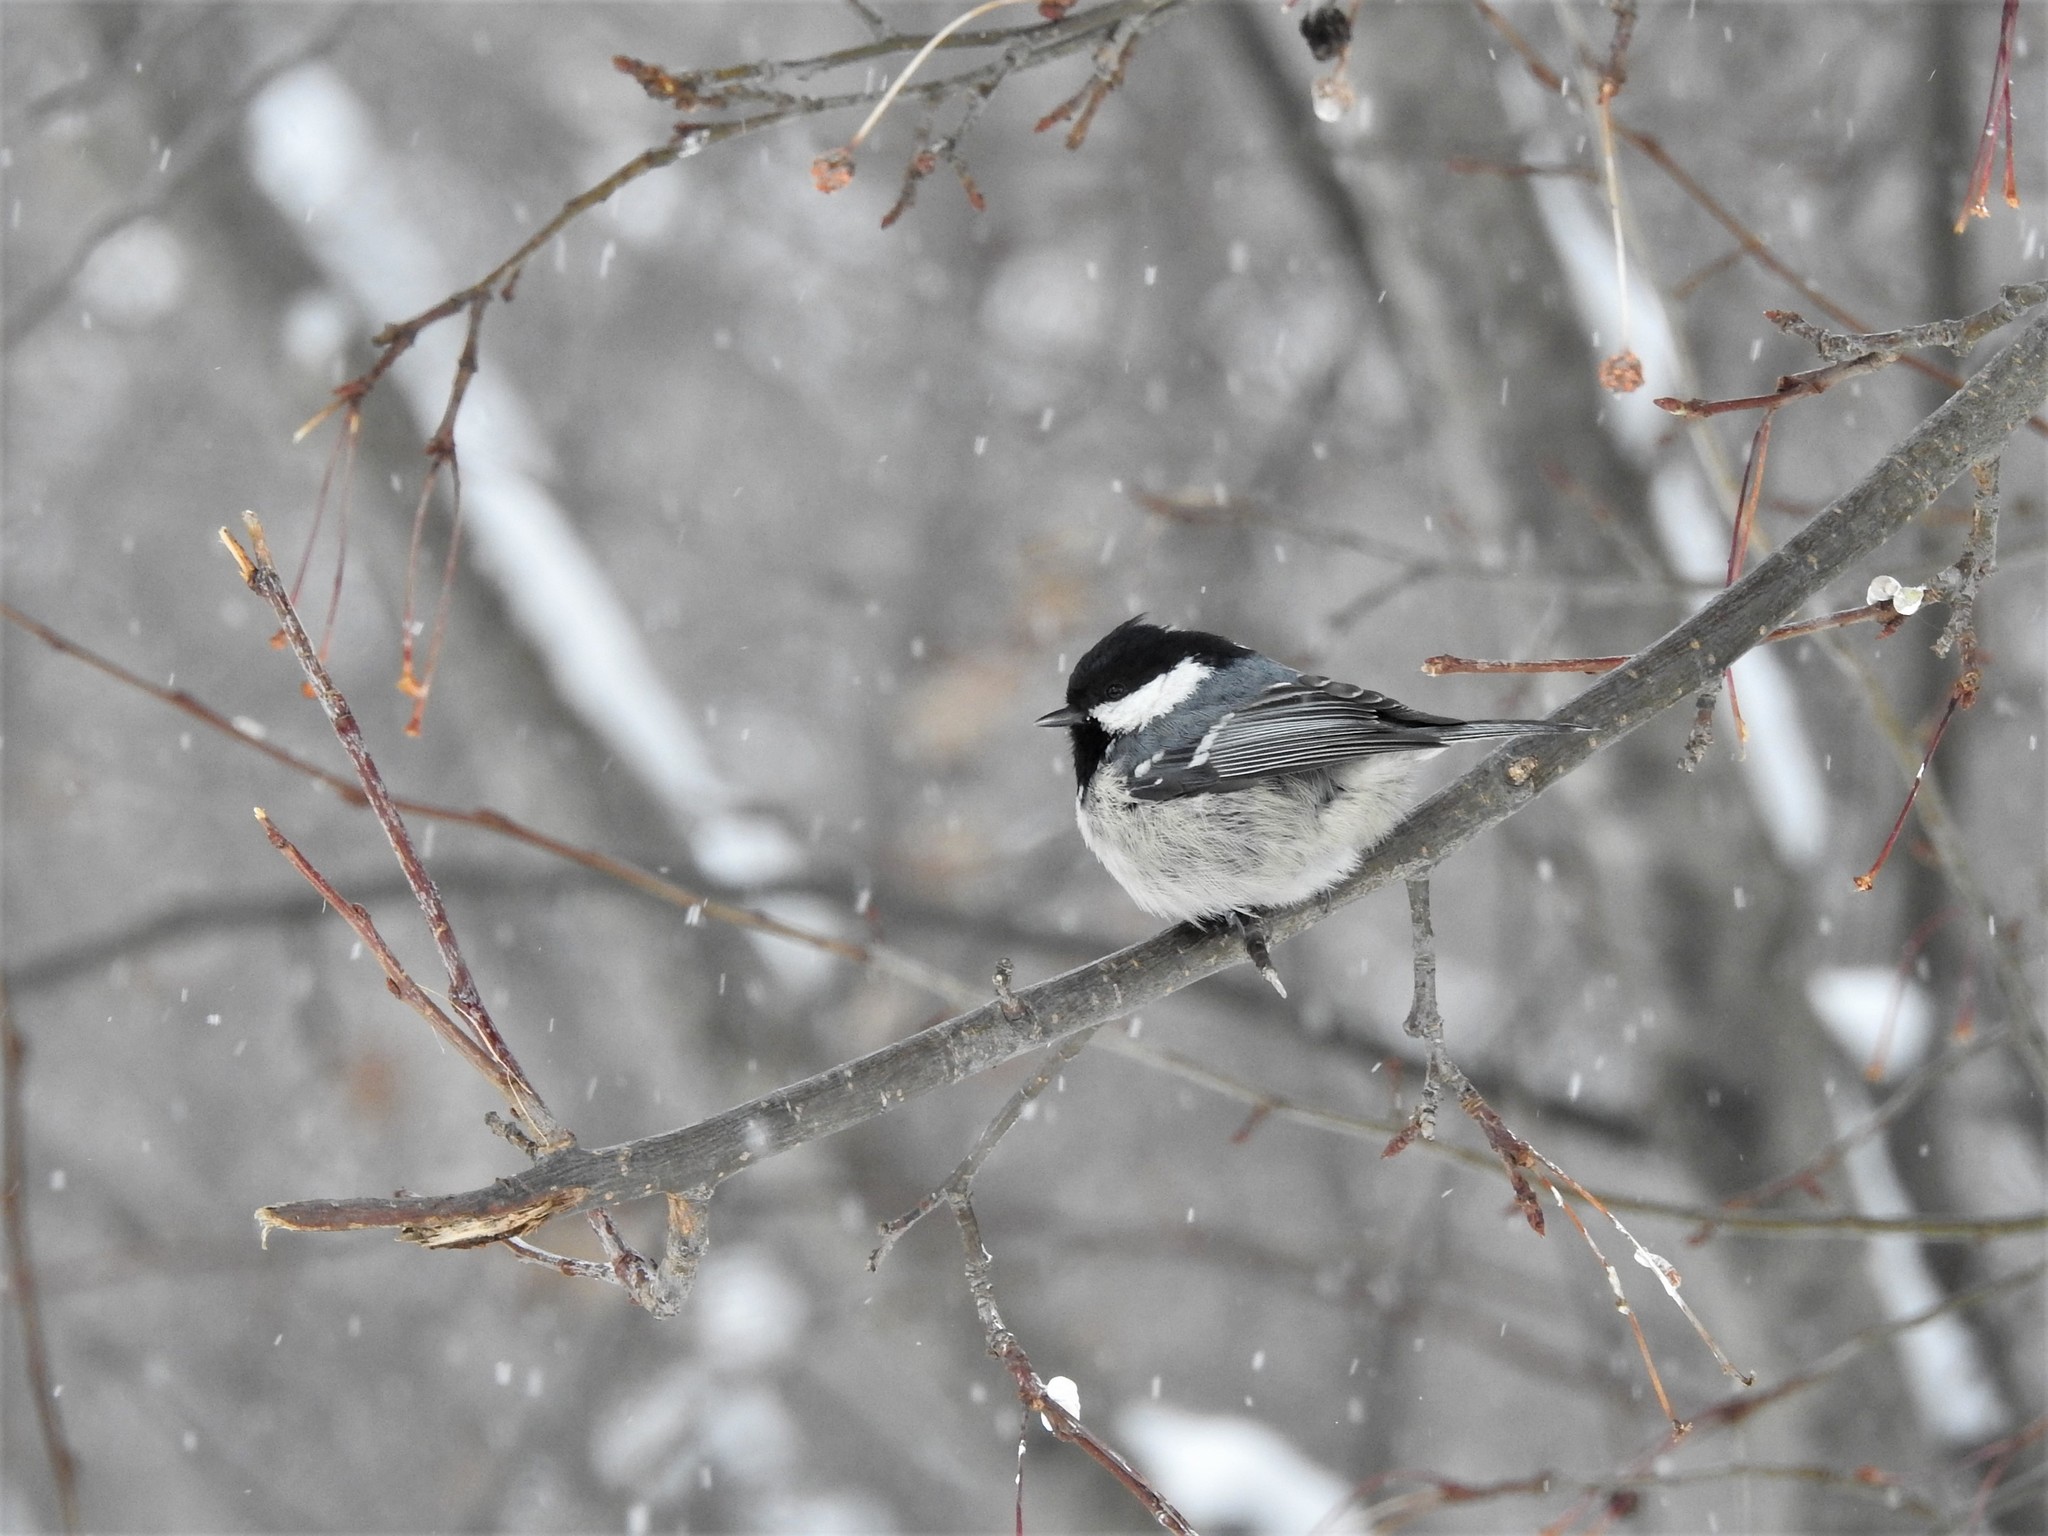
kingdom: Animalia
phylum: Chordata
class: Aves
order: Passeriformes
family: Paridae
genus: Periparus
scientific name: Periparus ater
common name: Coal tit
